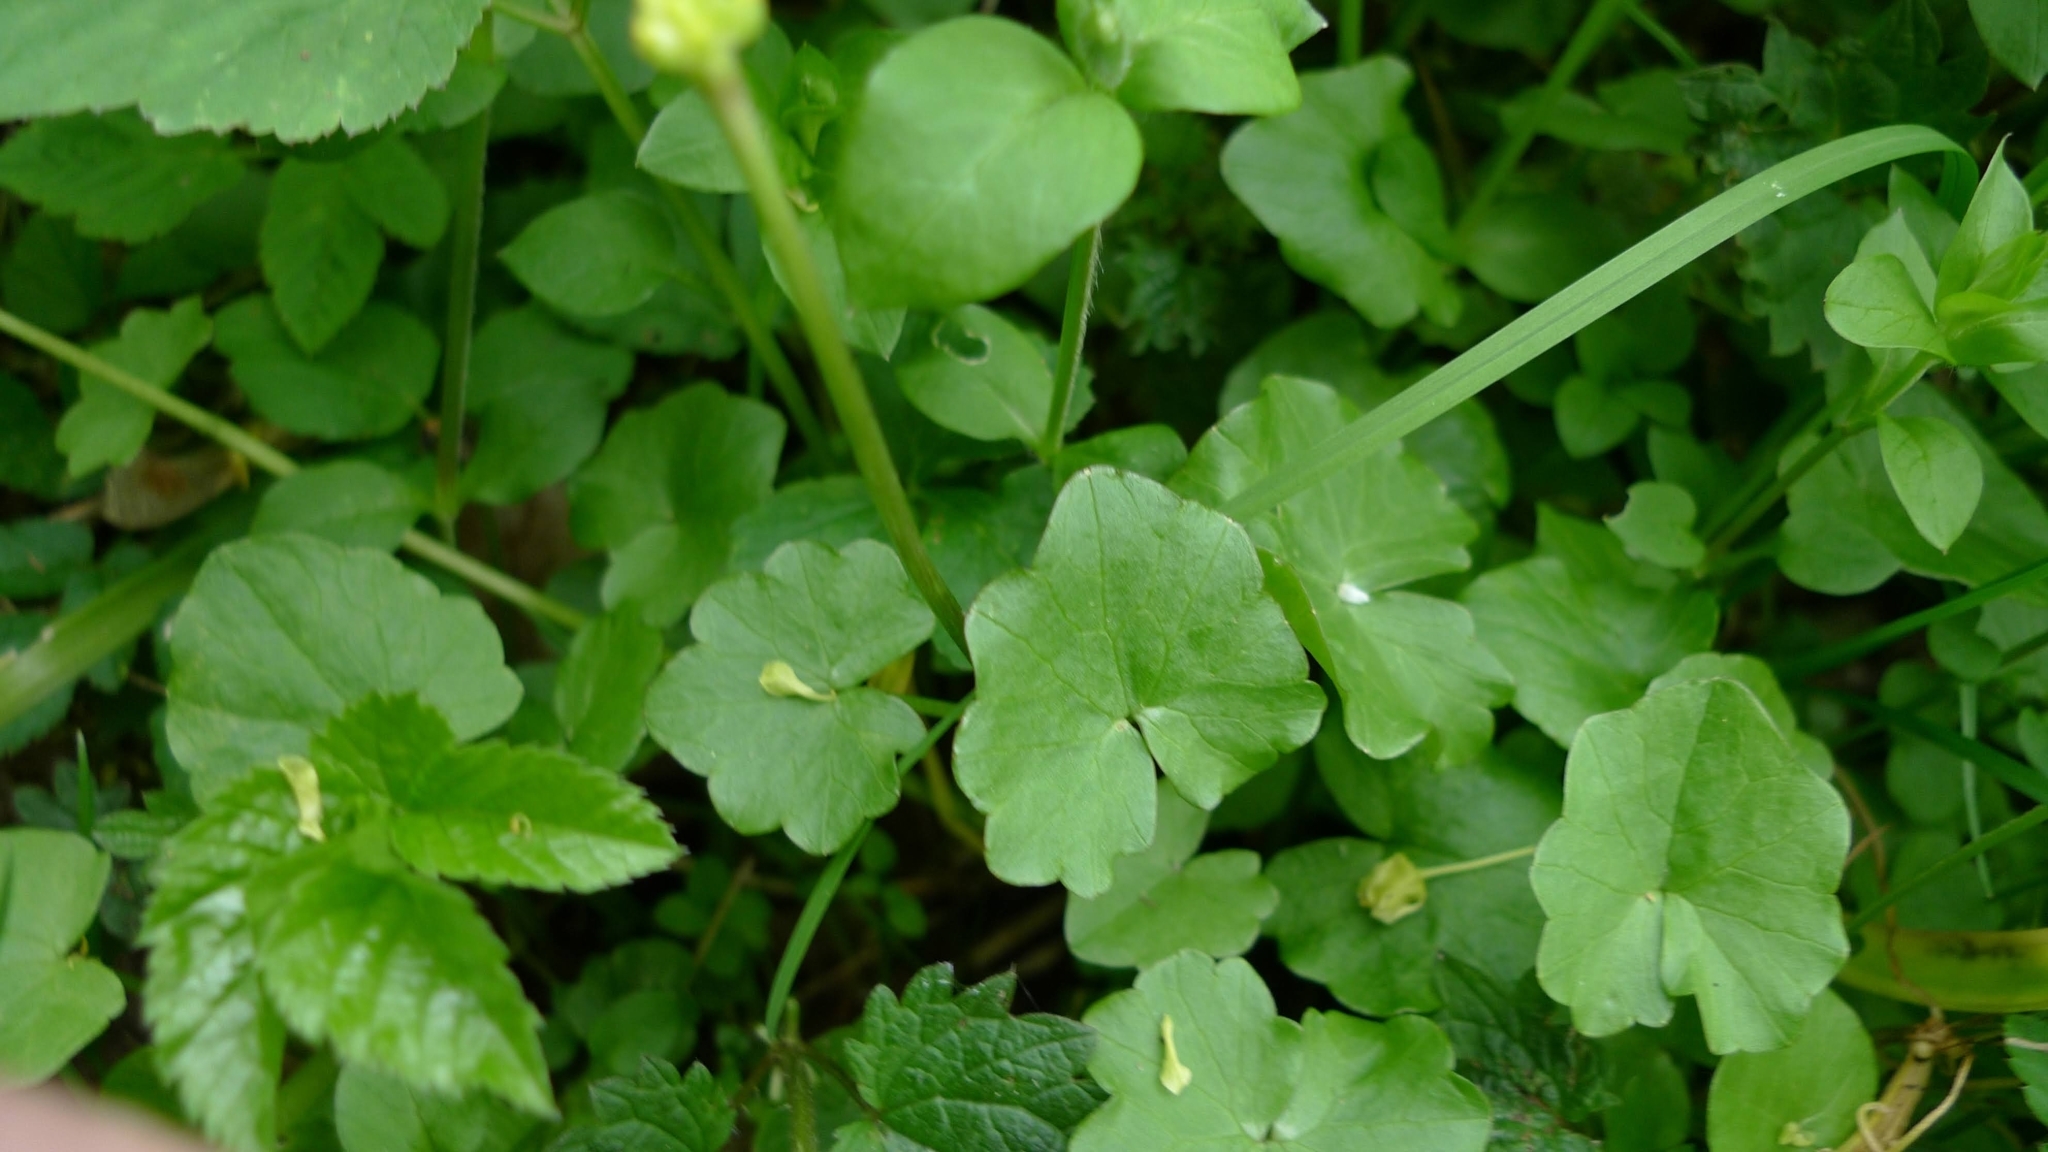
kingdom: Plantae
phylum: Tracheophyta
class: Magnoliopsida
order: Ranunculales
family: Ranunculaceae
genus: Ficaria
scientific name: Ficaria verna
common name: Lesser celandine
